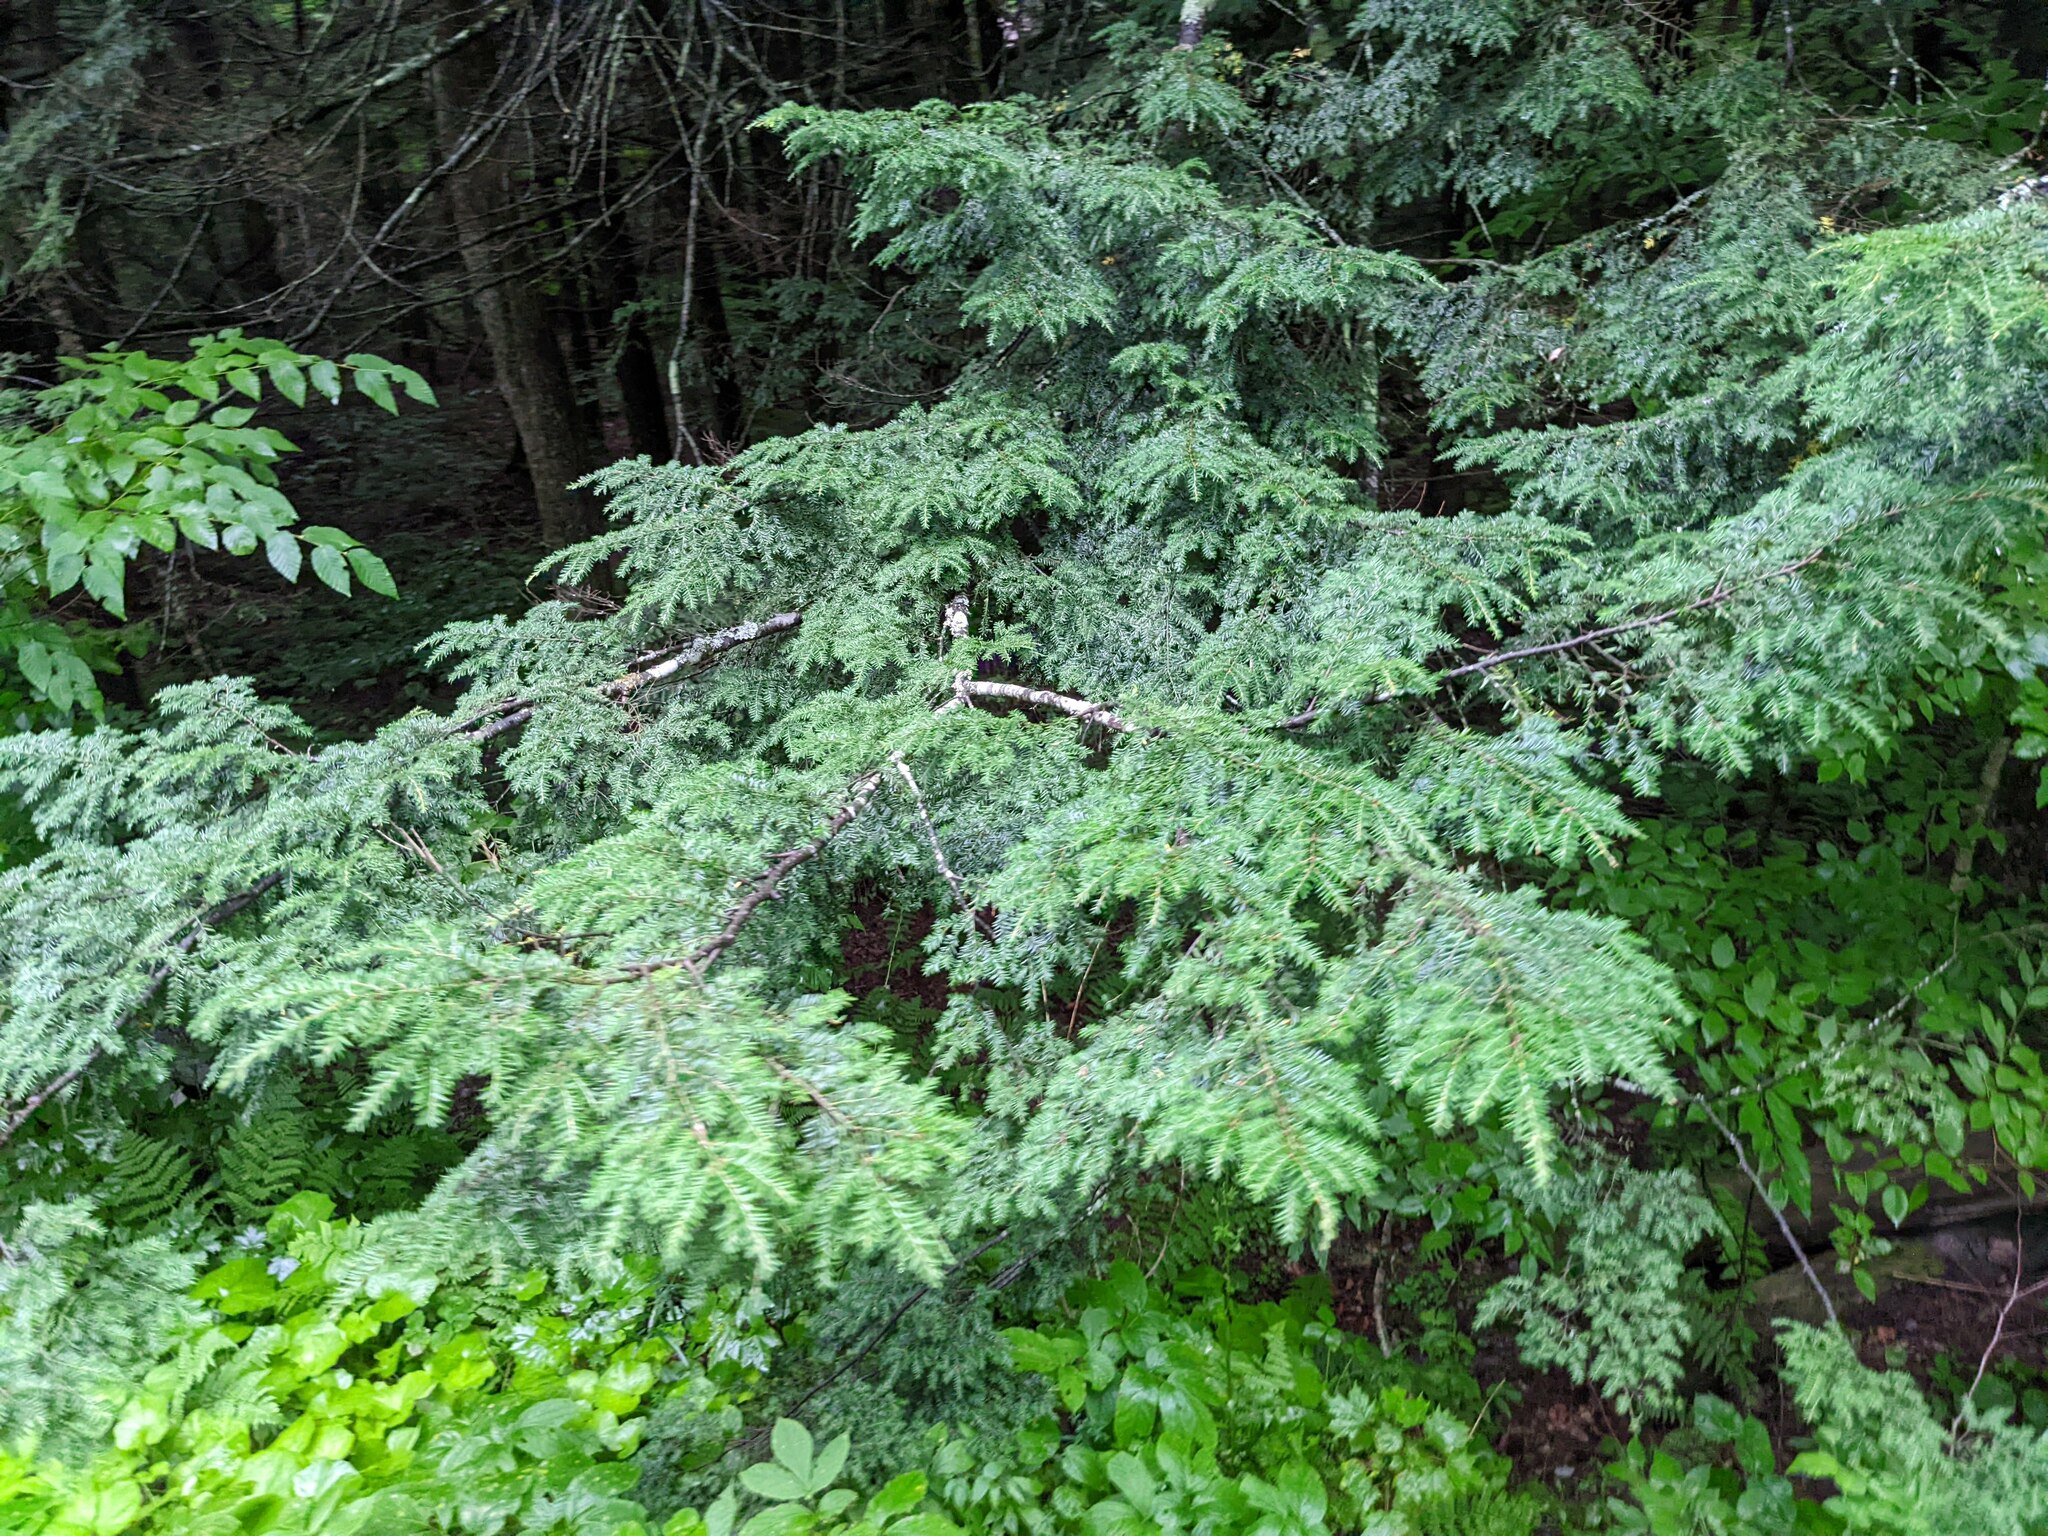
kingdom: Plantae
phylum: Tracheophyta
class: Pinopsida
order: Pinales
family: Pinaceae
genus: Tsuga
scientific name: Tsuga canadensis
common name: Eastern hemlock
